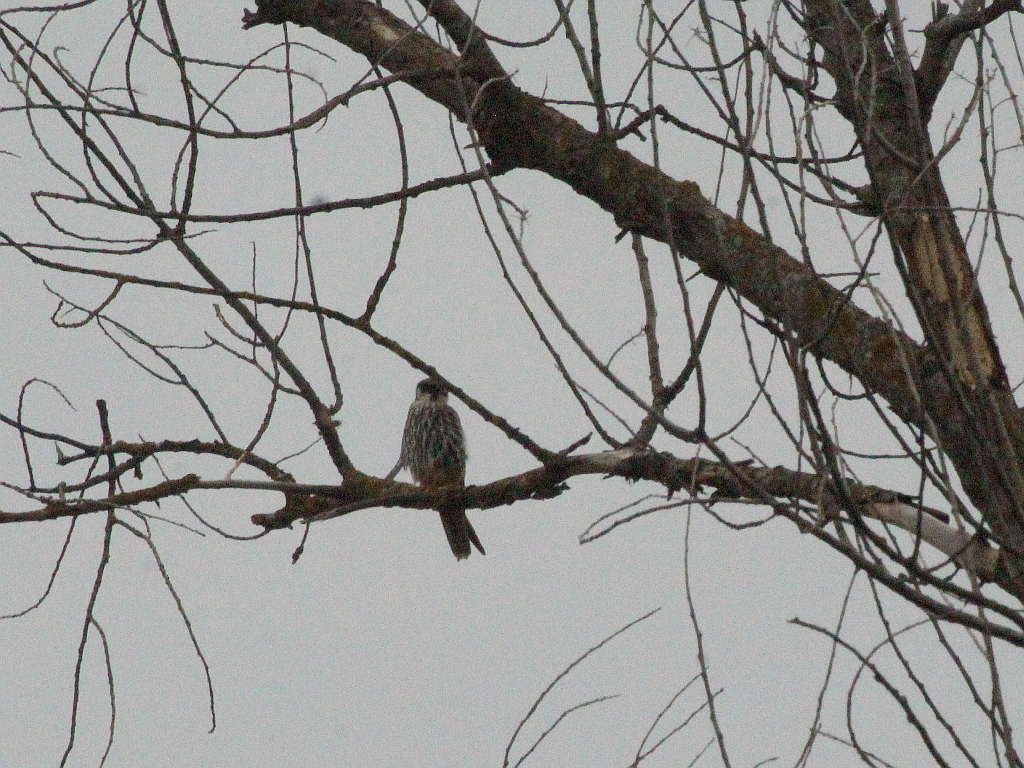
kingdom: Animalia
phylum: Chordata
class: Aves
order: Falconiformes
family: Falconidae
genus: Falco
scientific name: Falco subbuteo
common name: Eurasian hobby
